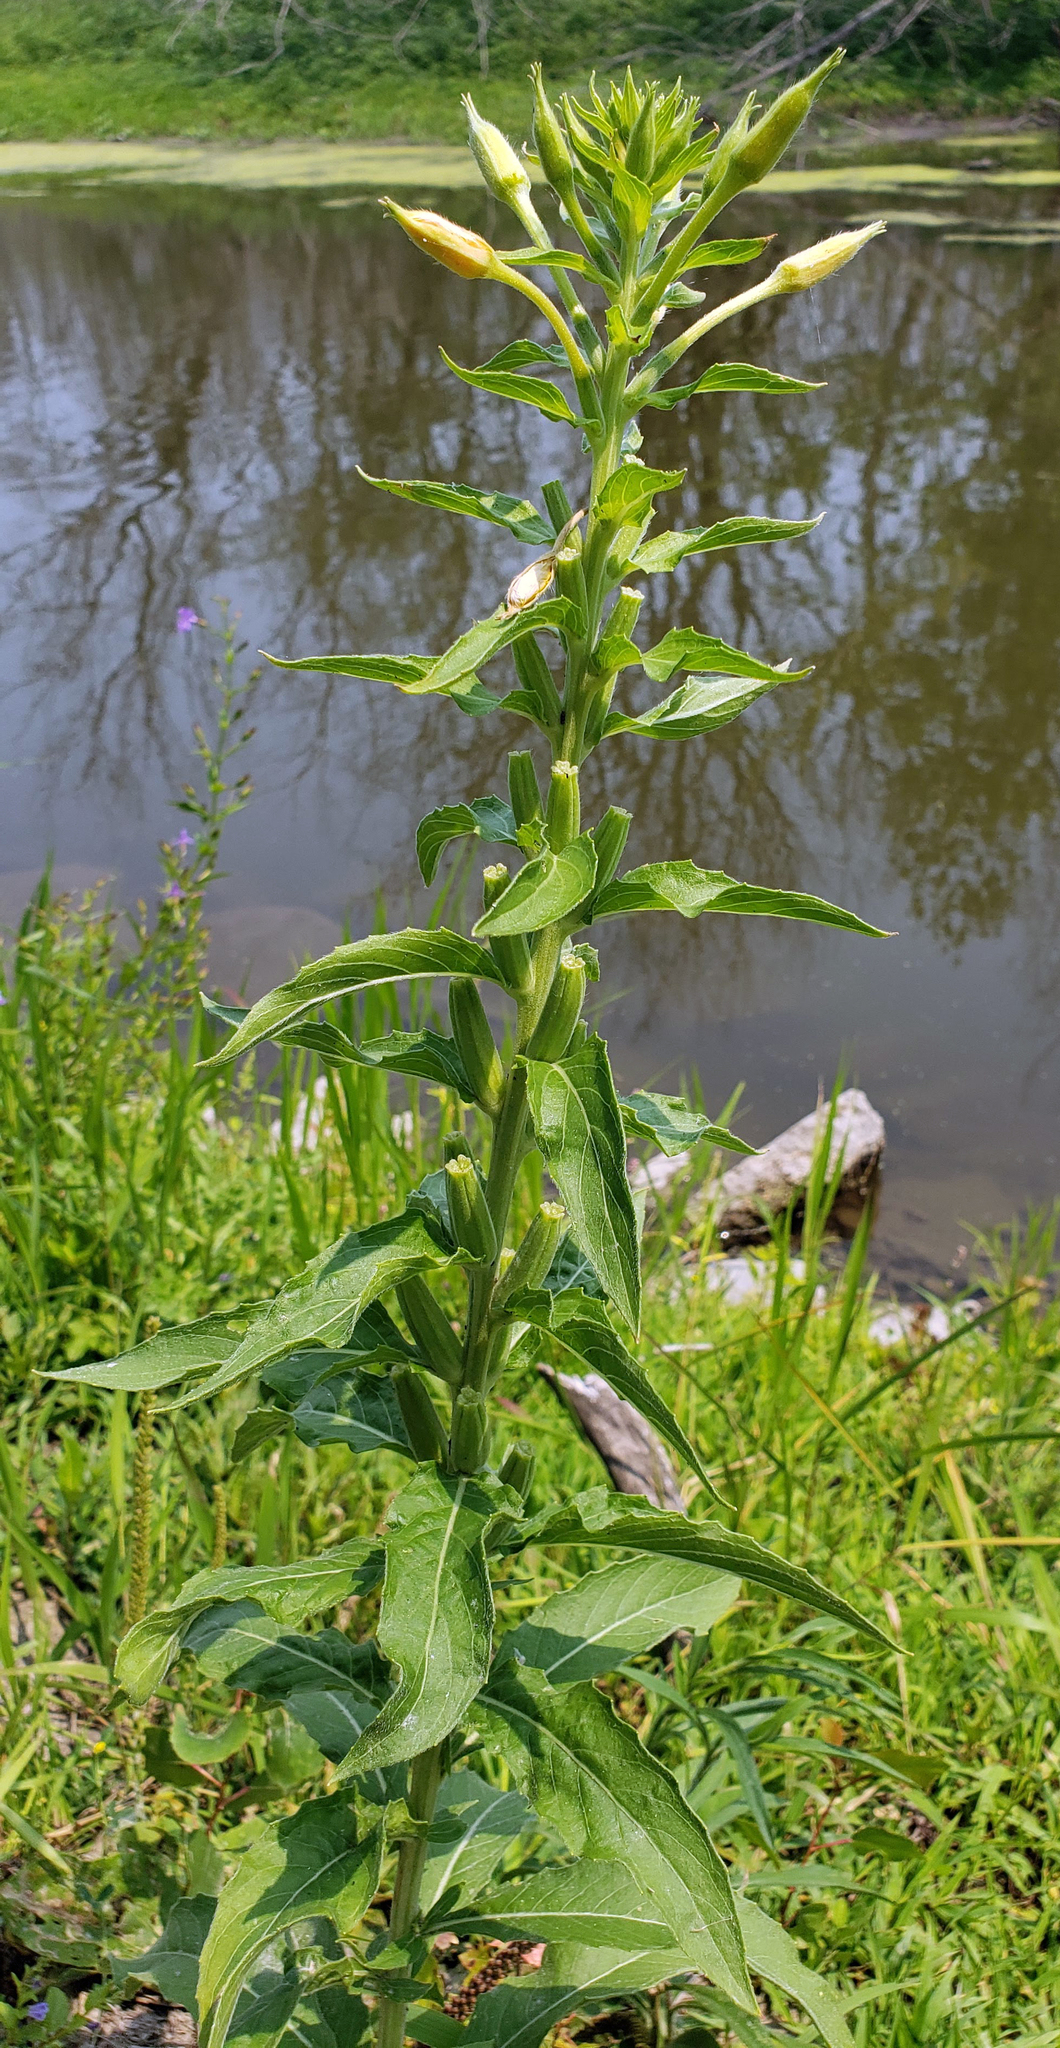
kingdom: Plantae
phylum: Tracheophyta
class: Magnoliopsida
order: Myrtales
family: Onagraceae
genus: Oenothera
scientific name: Oenothera biennis
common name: Common evening-primrose
